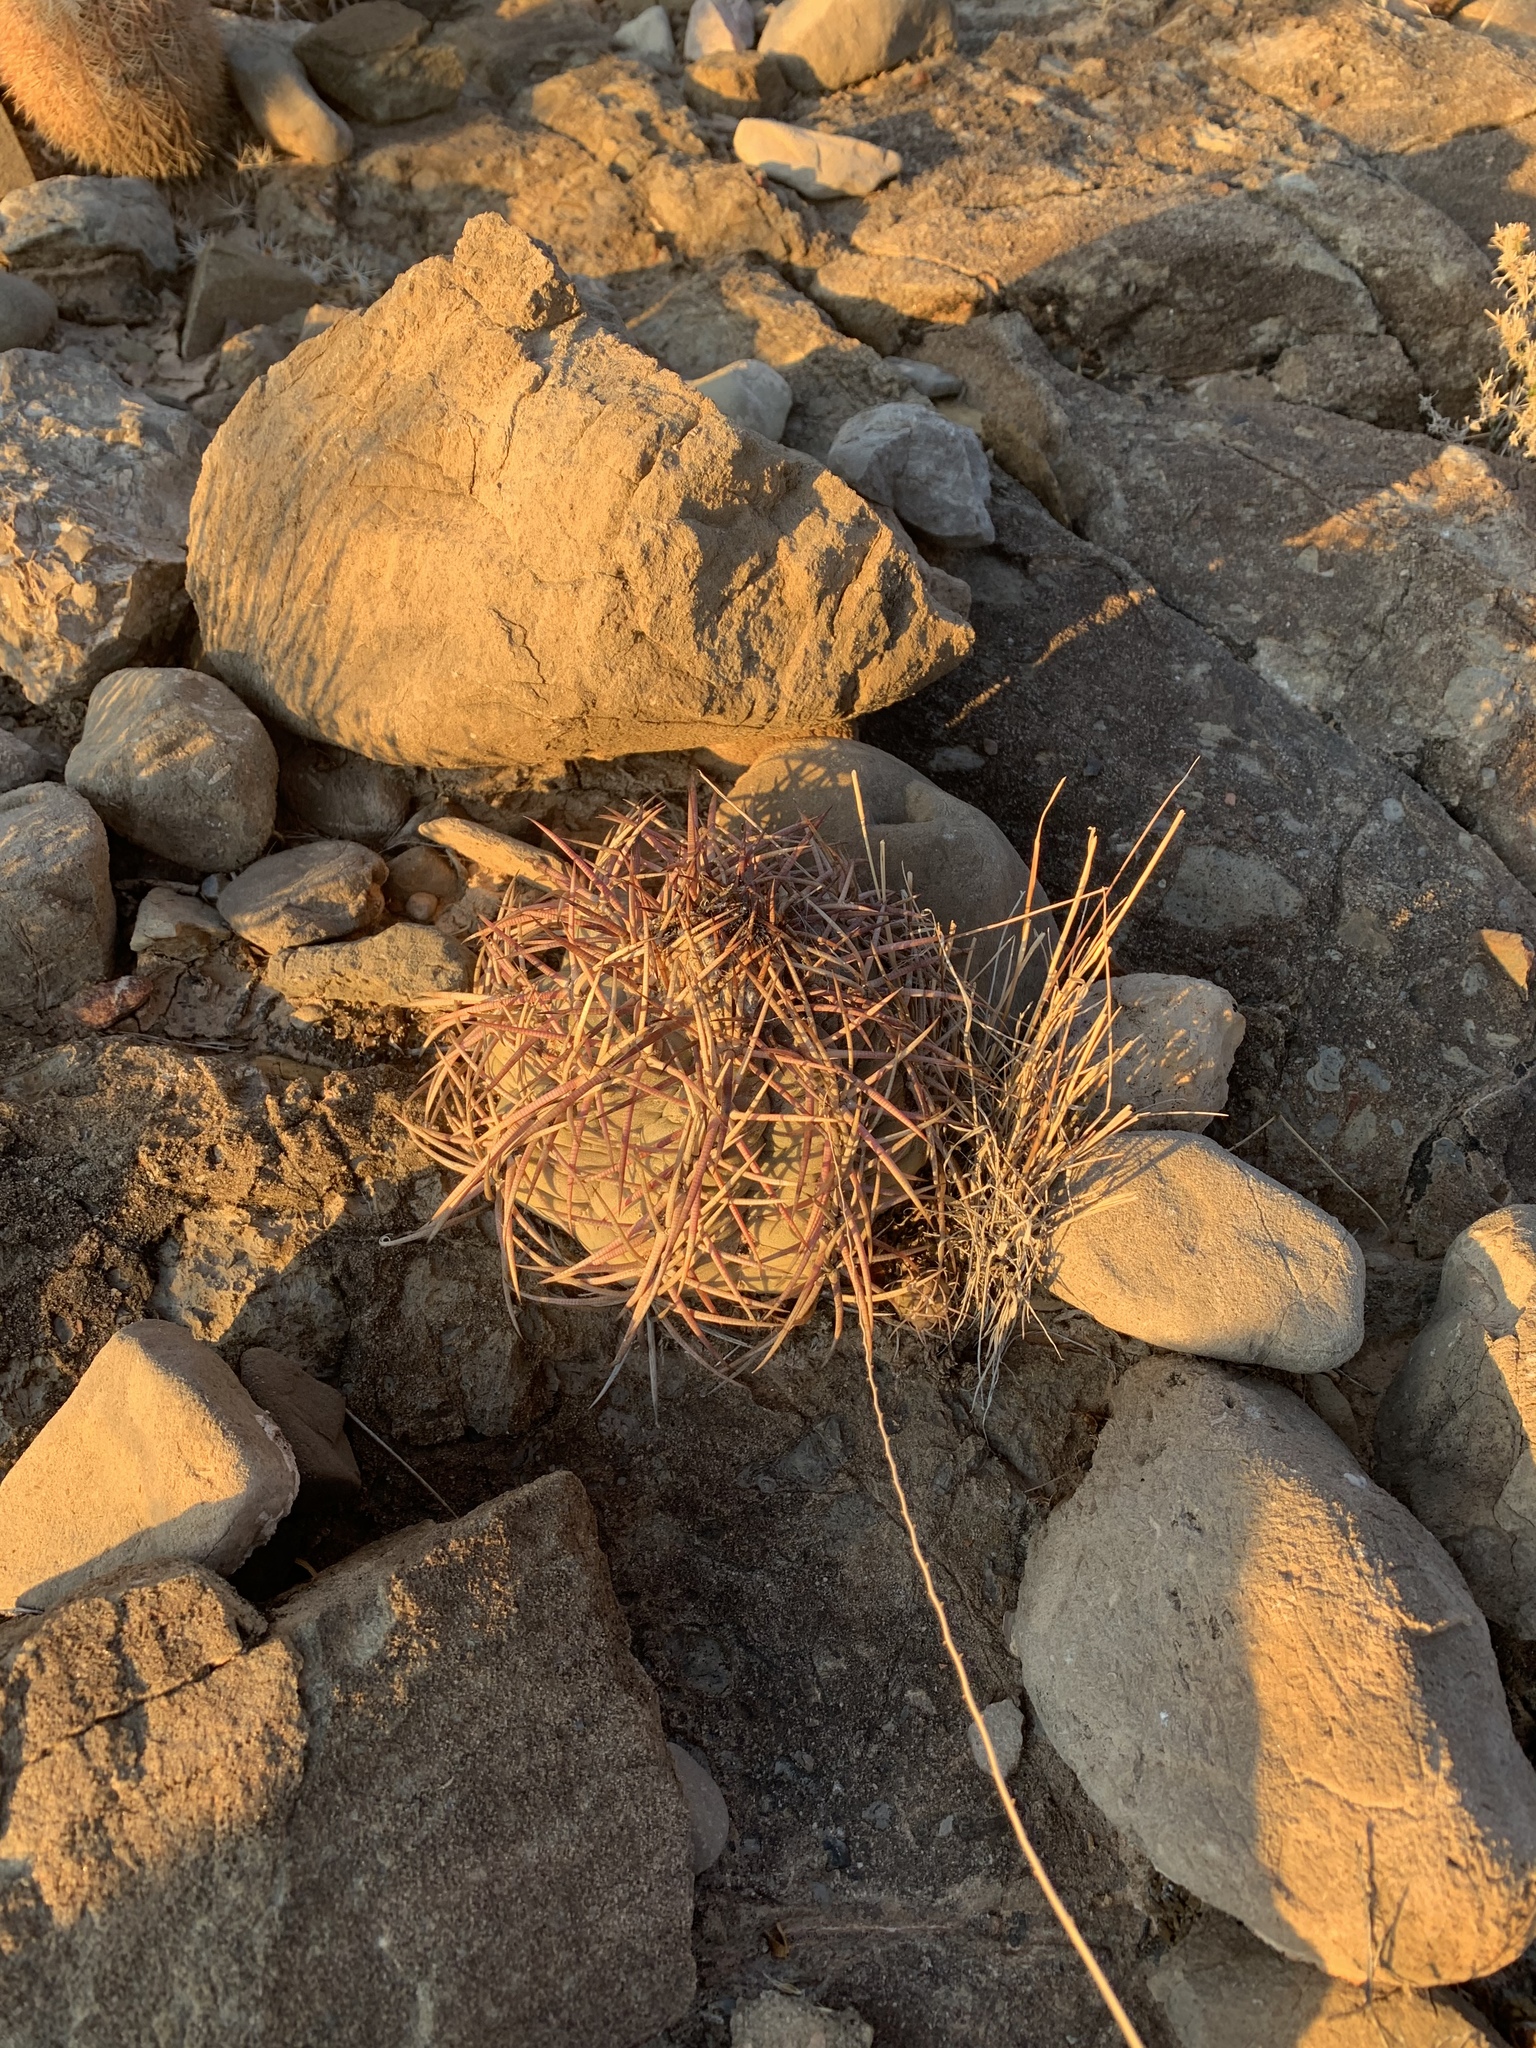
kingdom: Plantae
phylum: Tracheophyta
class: Magnoliopsida
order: Caryophyllales
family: Cactaceae
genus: Echinocactus
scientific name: Echinocactus horizonthalonius
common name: Devilshead
